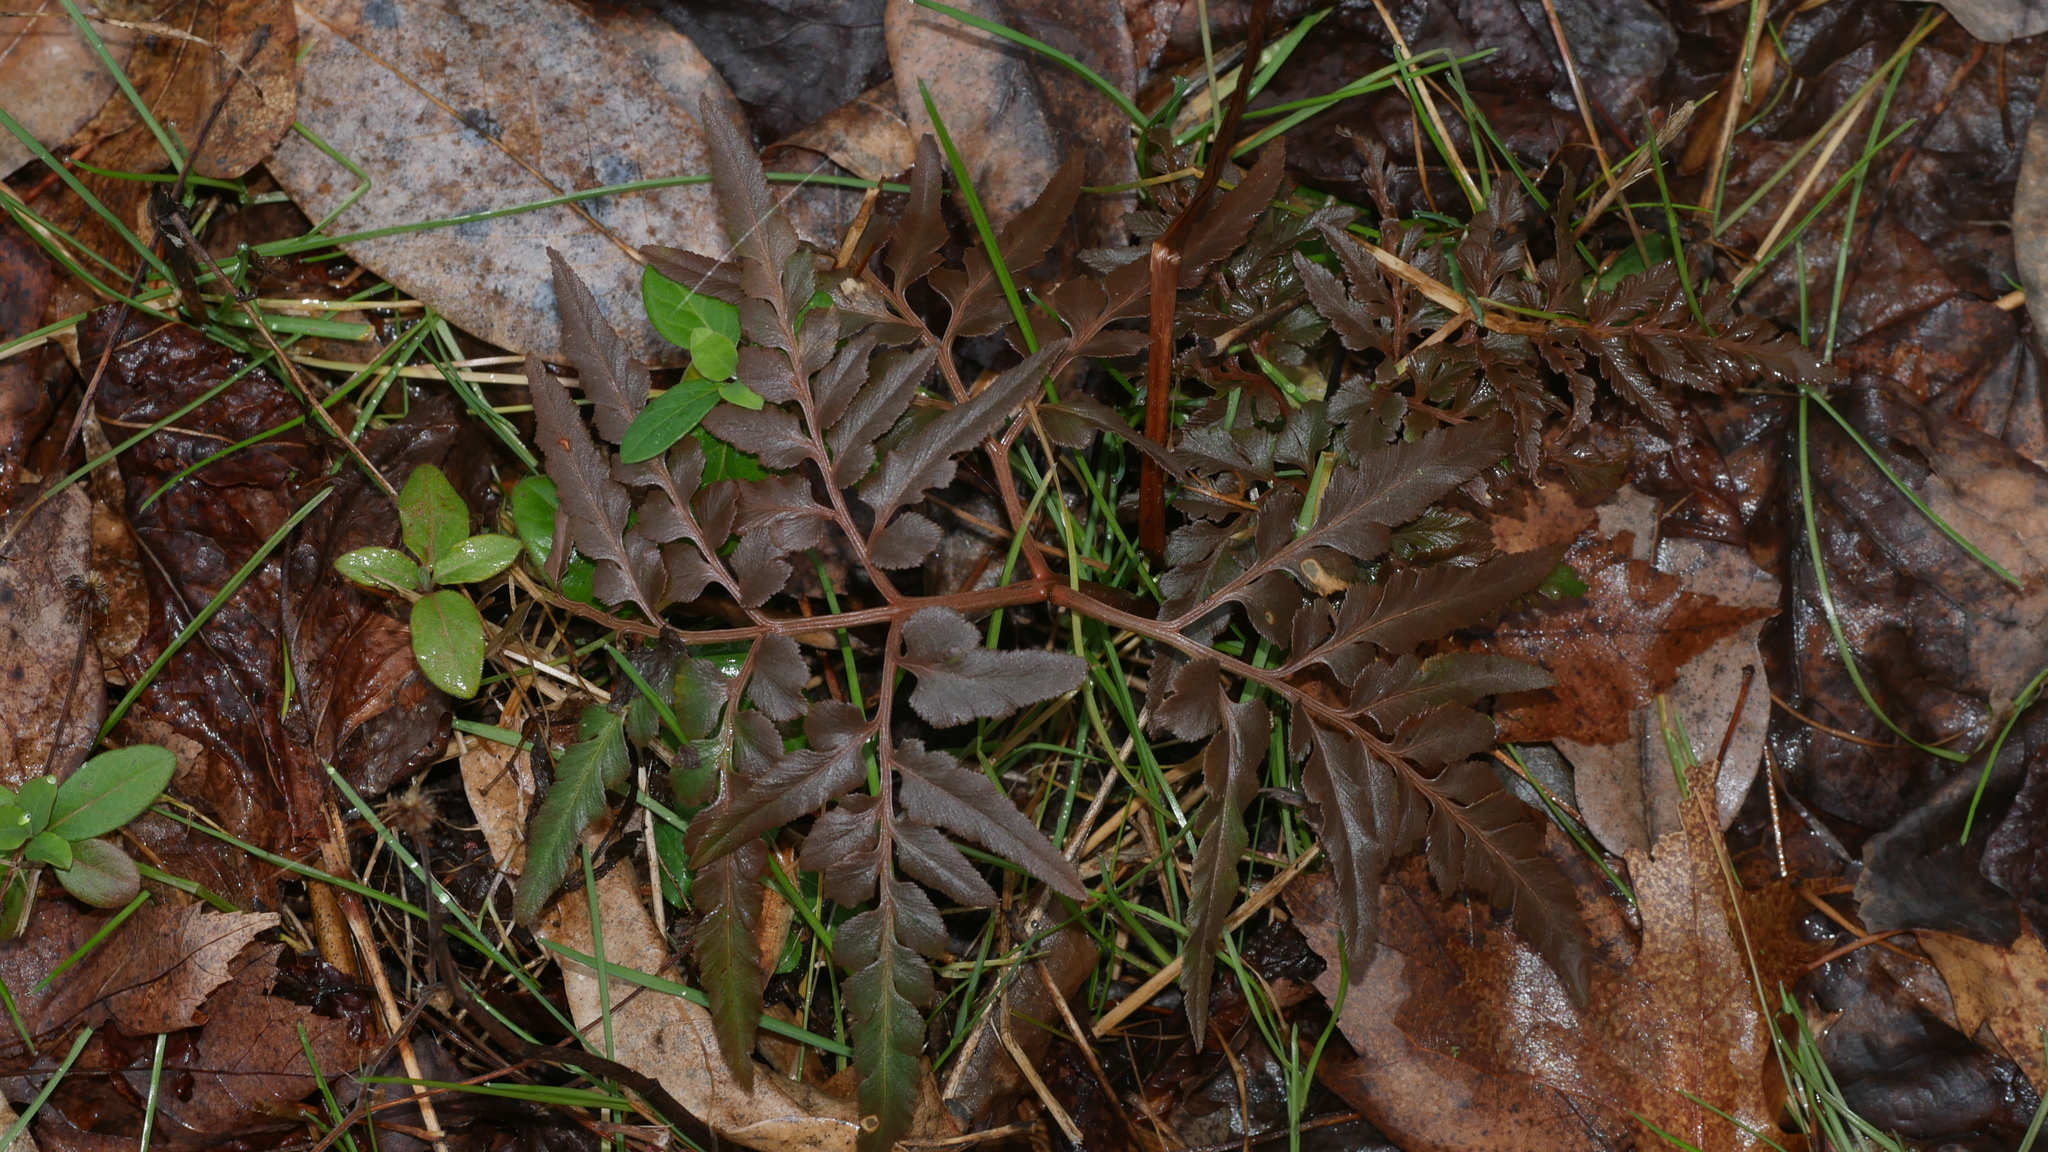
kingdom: Plantae
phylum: Tracheophyta
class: Polypodiopsida
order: Ophioglossales
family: Ophioglossaceae
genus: Sceptridium
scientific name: Sceptridium dissectum
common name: Cut-leaved grapefern
